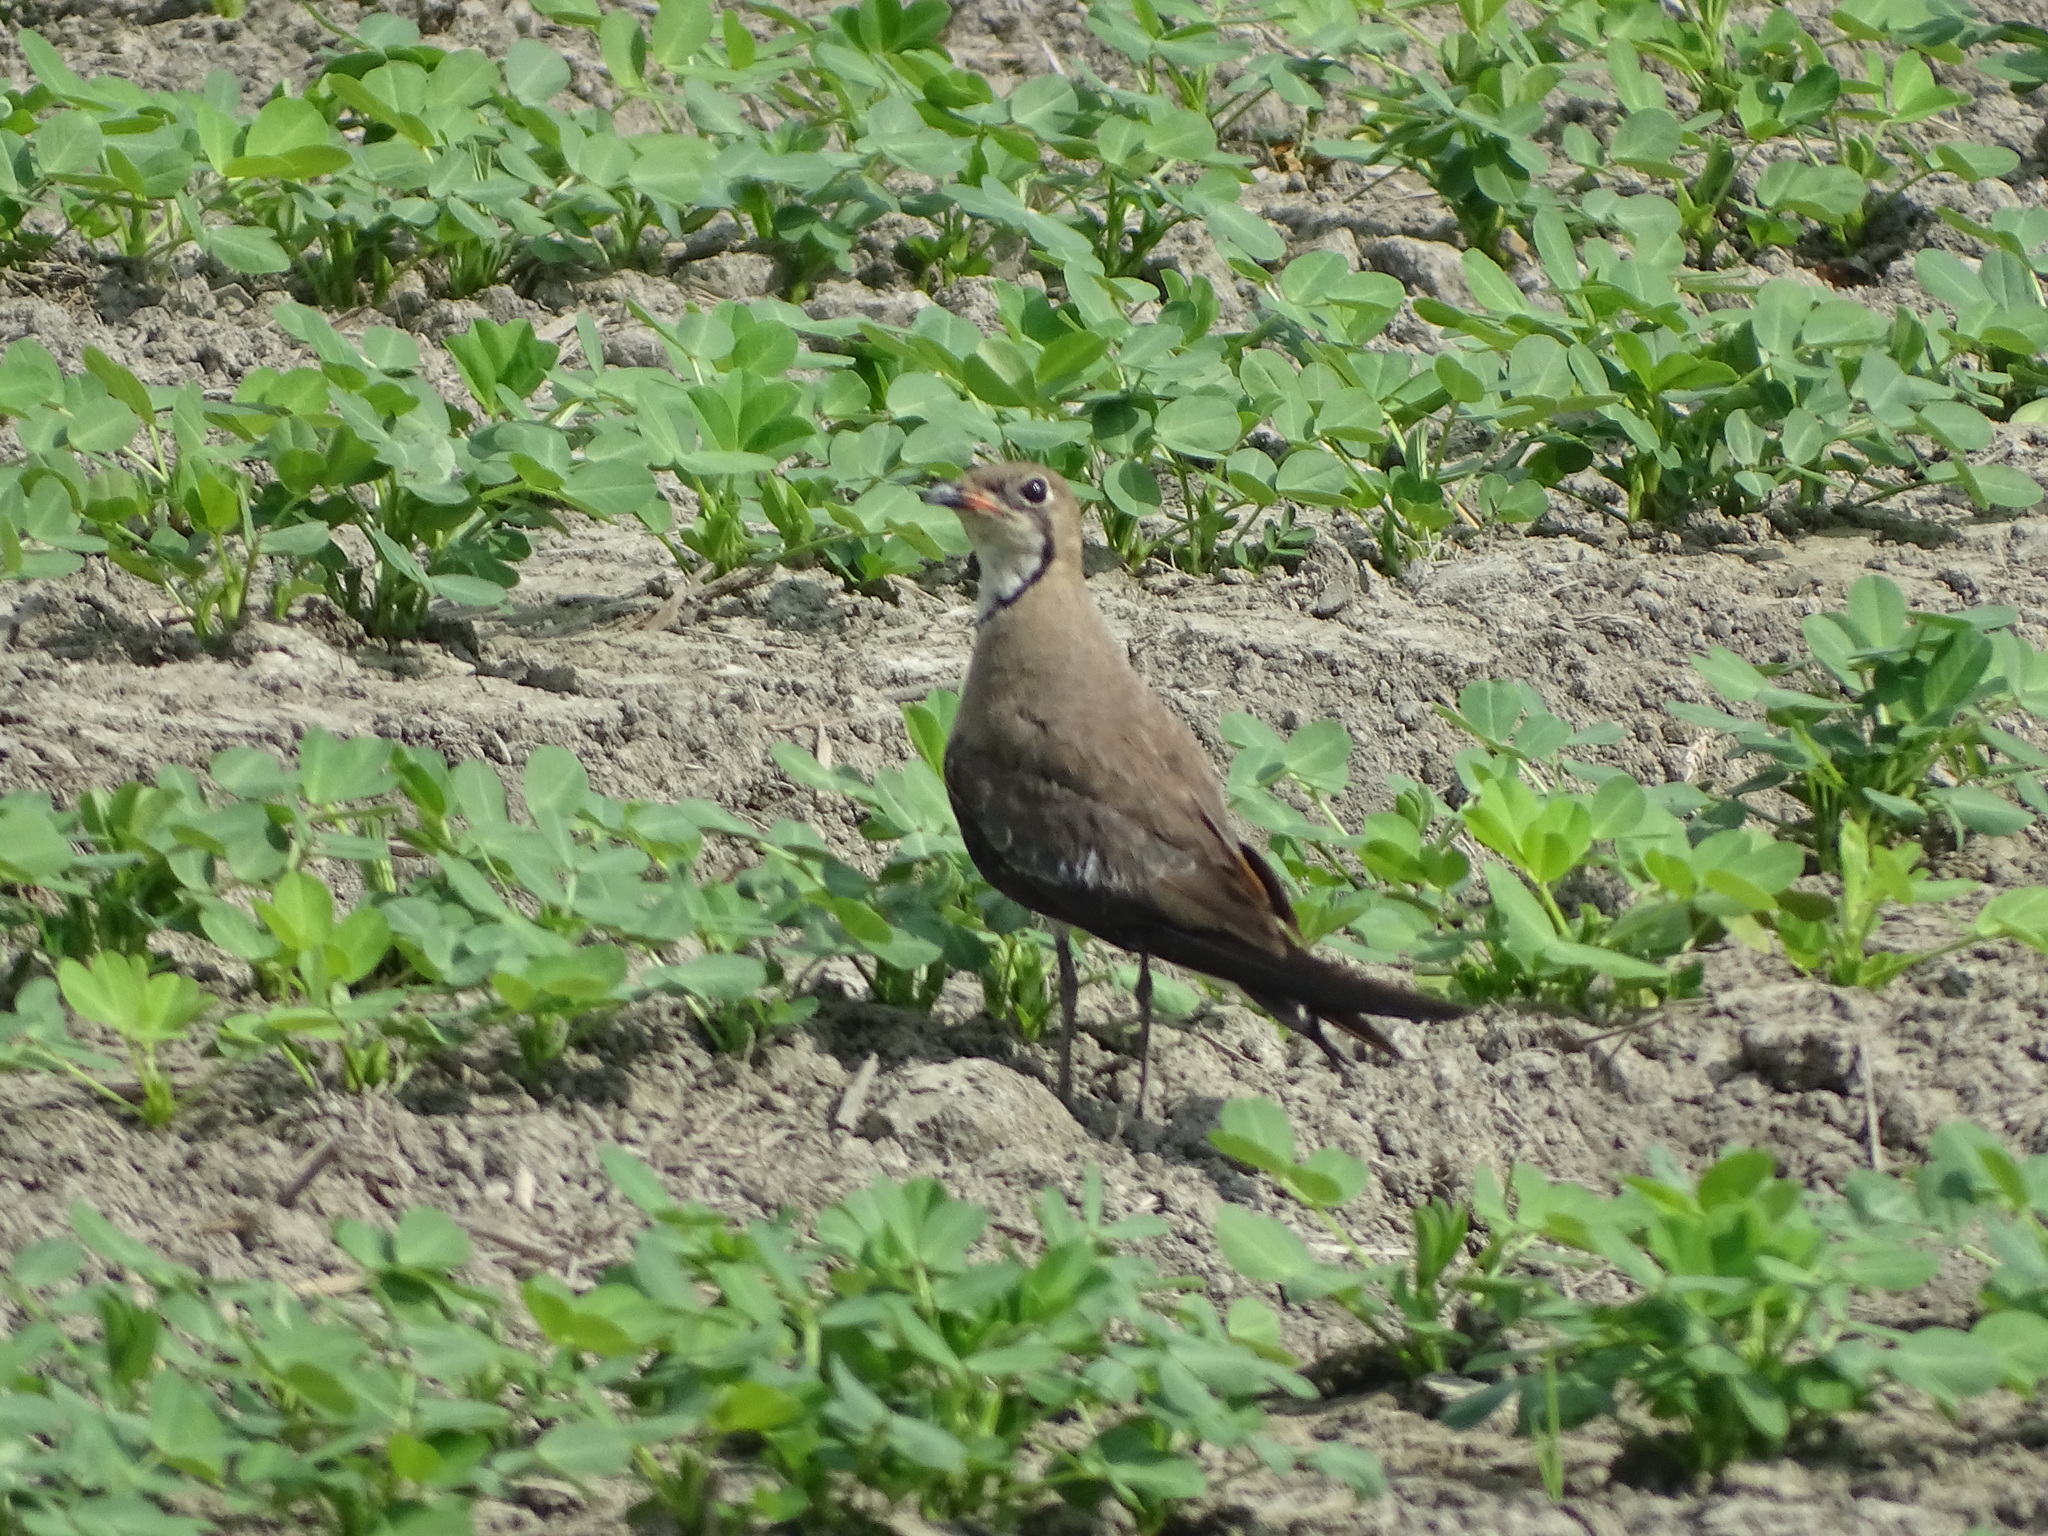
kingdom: Animalia
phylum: Chordata
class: Aves
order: Charadriiformes
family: Glareolidae
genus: Glareola
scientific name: Glareola maldivarum
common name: Oriental pratincole
